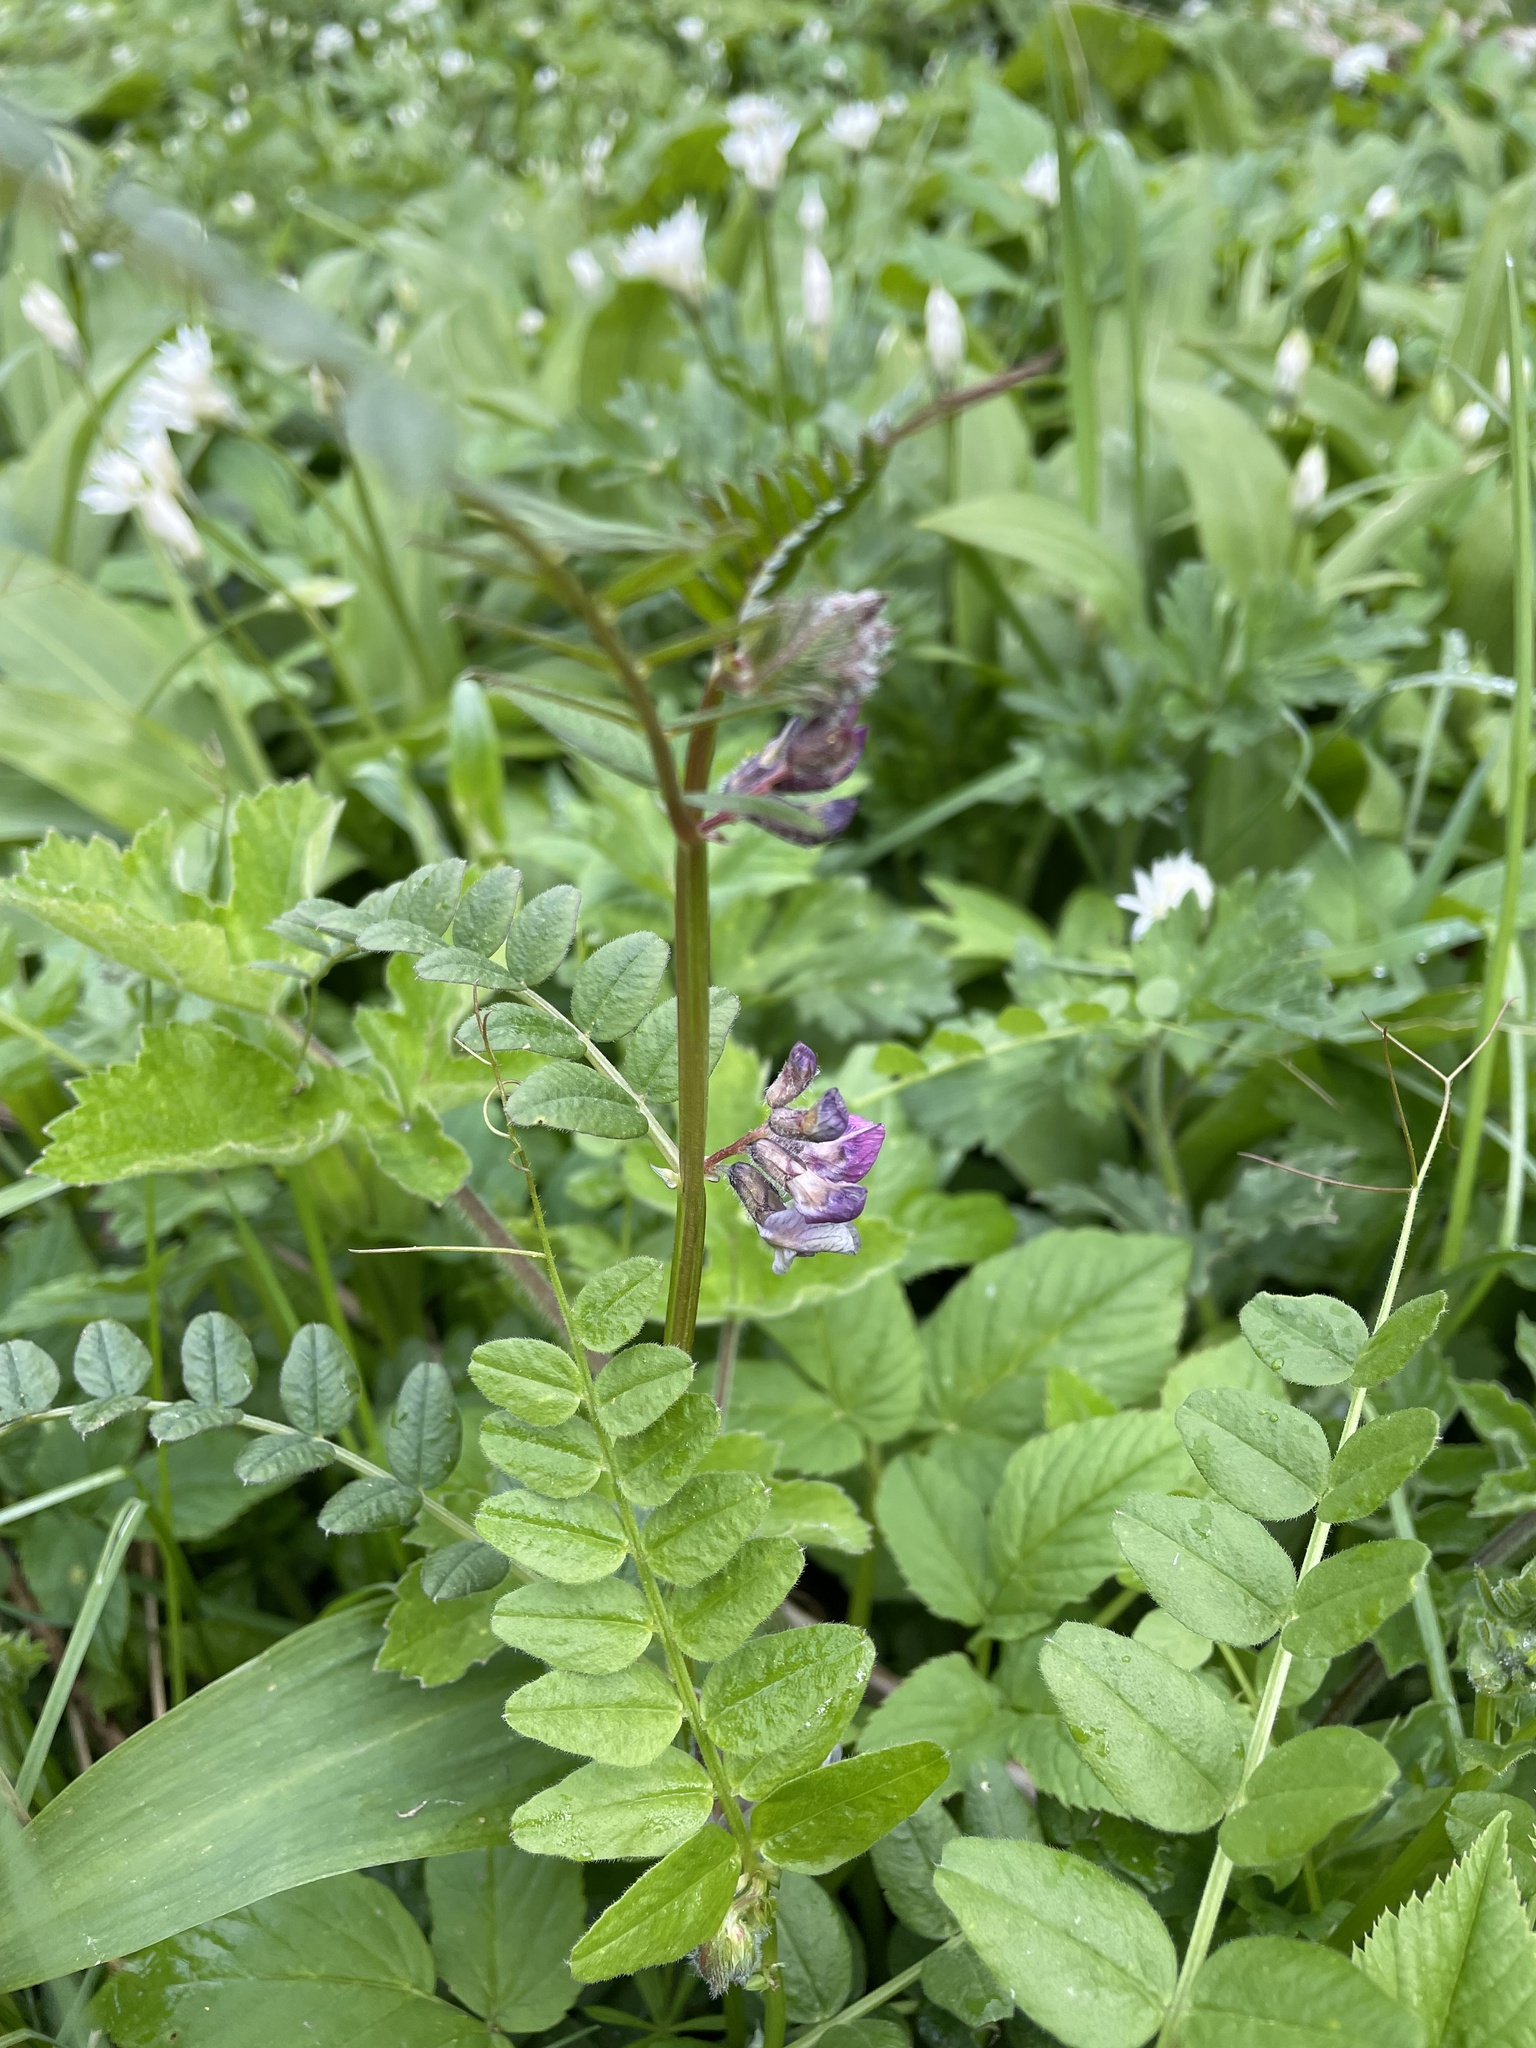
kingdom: Plantae
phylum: Tracheophyta
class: Magnoliopsida
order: Fabales
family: Fabaceae
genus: Vicia
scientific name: Vicia sepium
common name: Bush vetch
